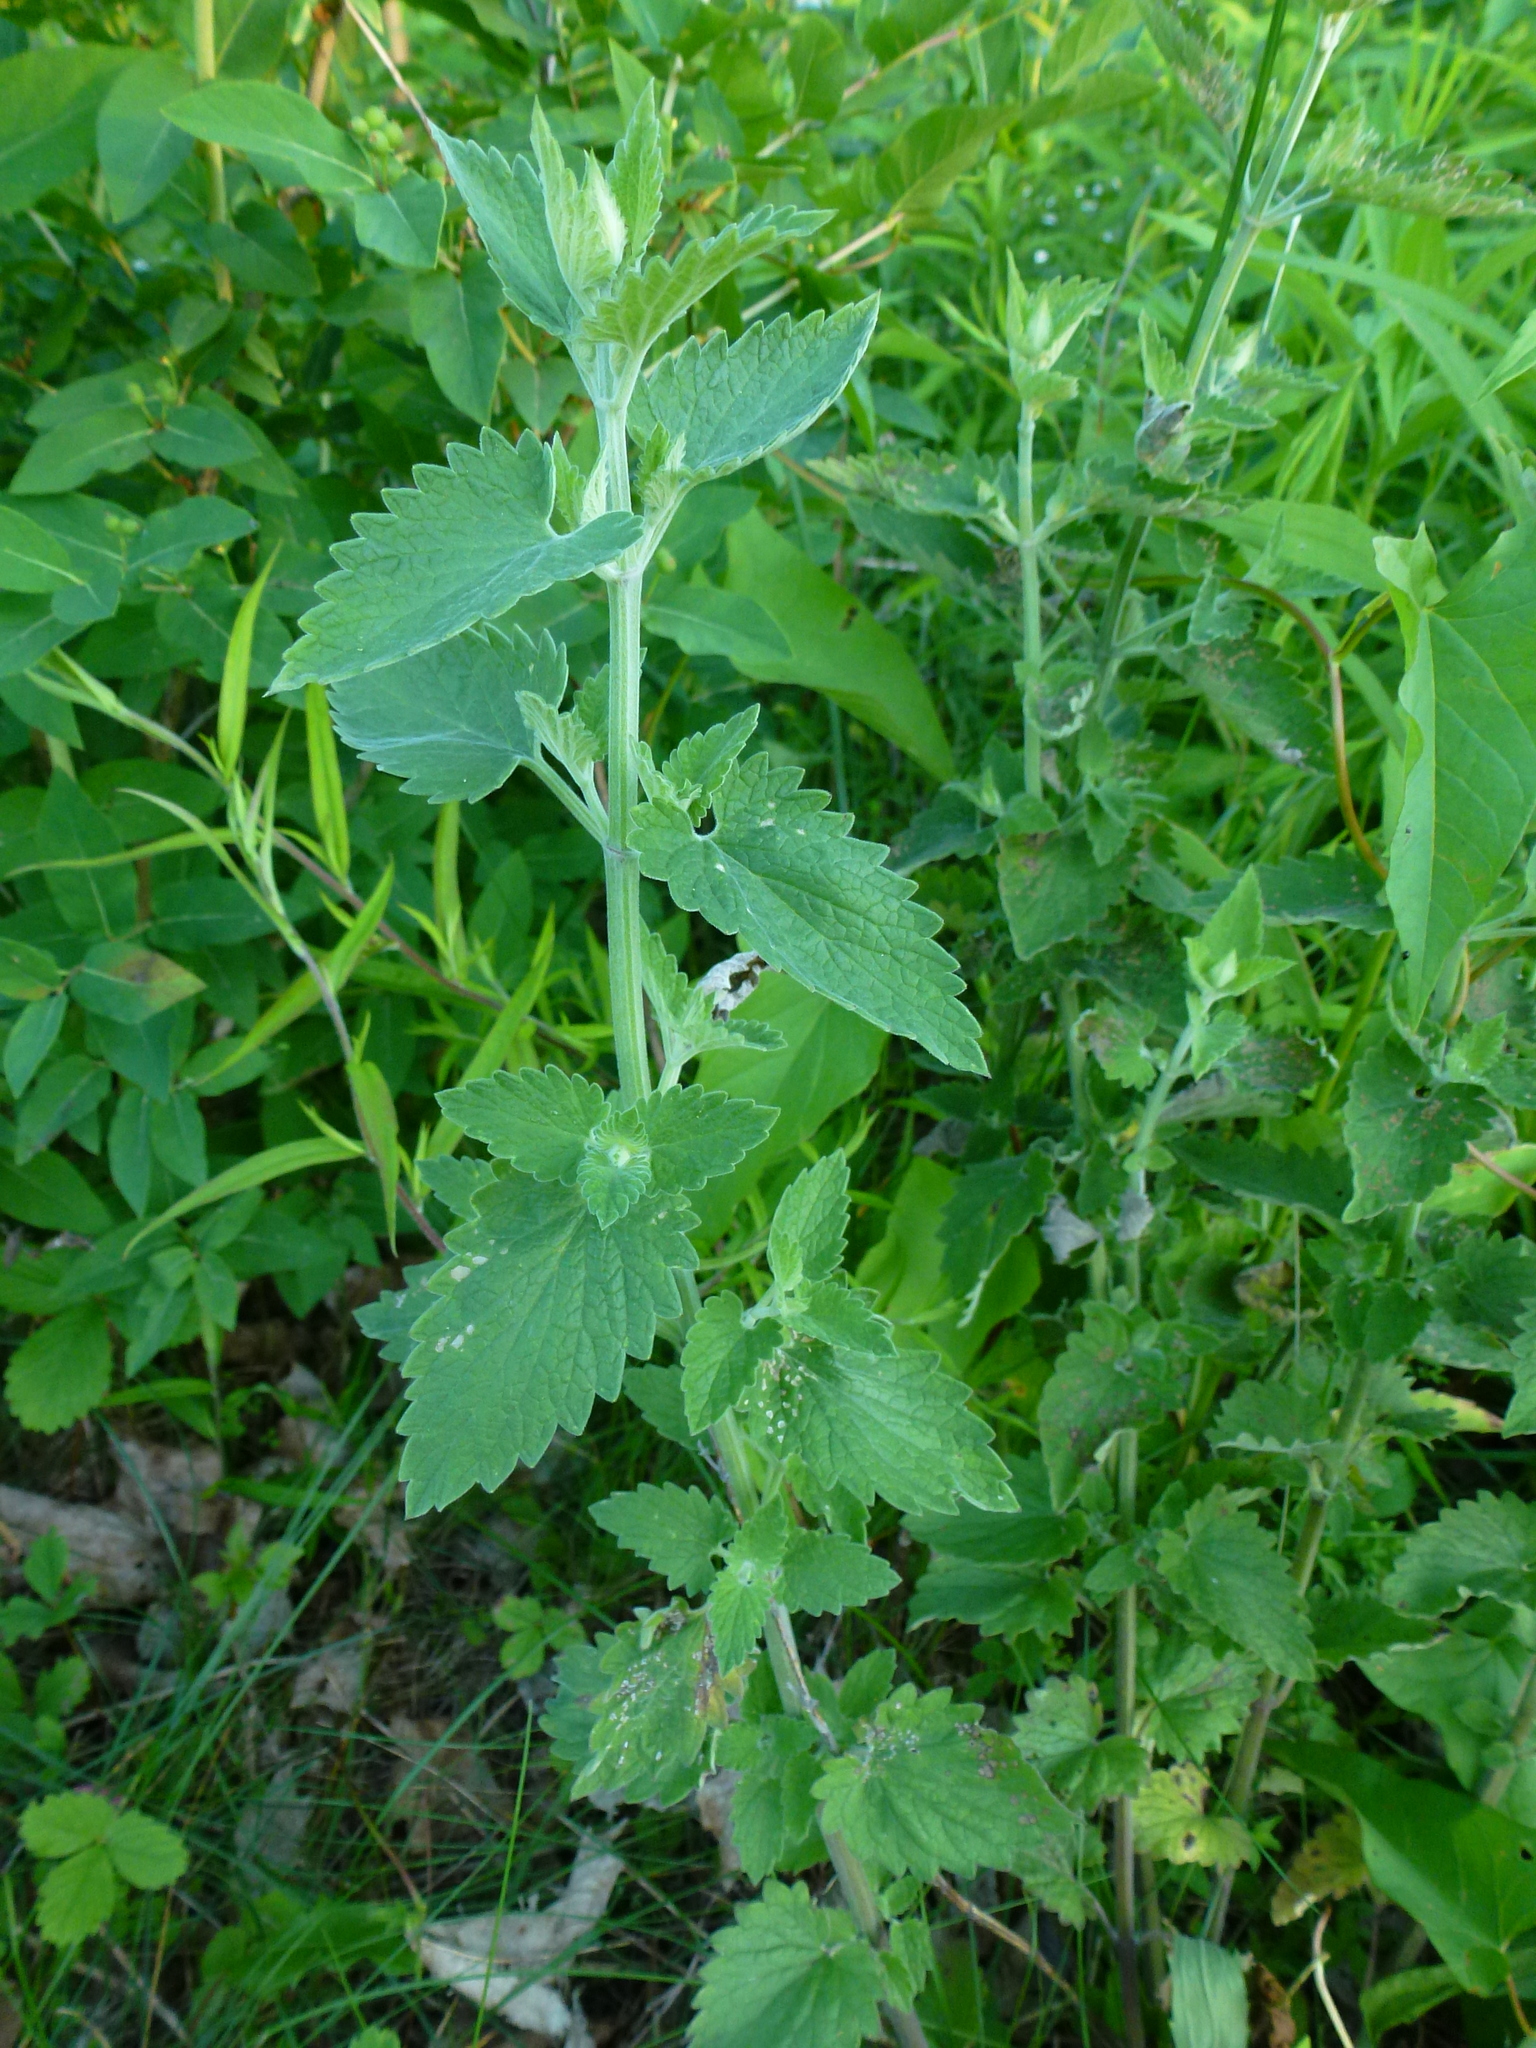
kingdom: Plantae
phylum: Tracheophyta
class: Magnoliopsida
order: Lamiales
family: Lamiaceae
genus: Nepeta
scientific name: Nepeta cataria
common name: Catnip
